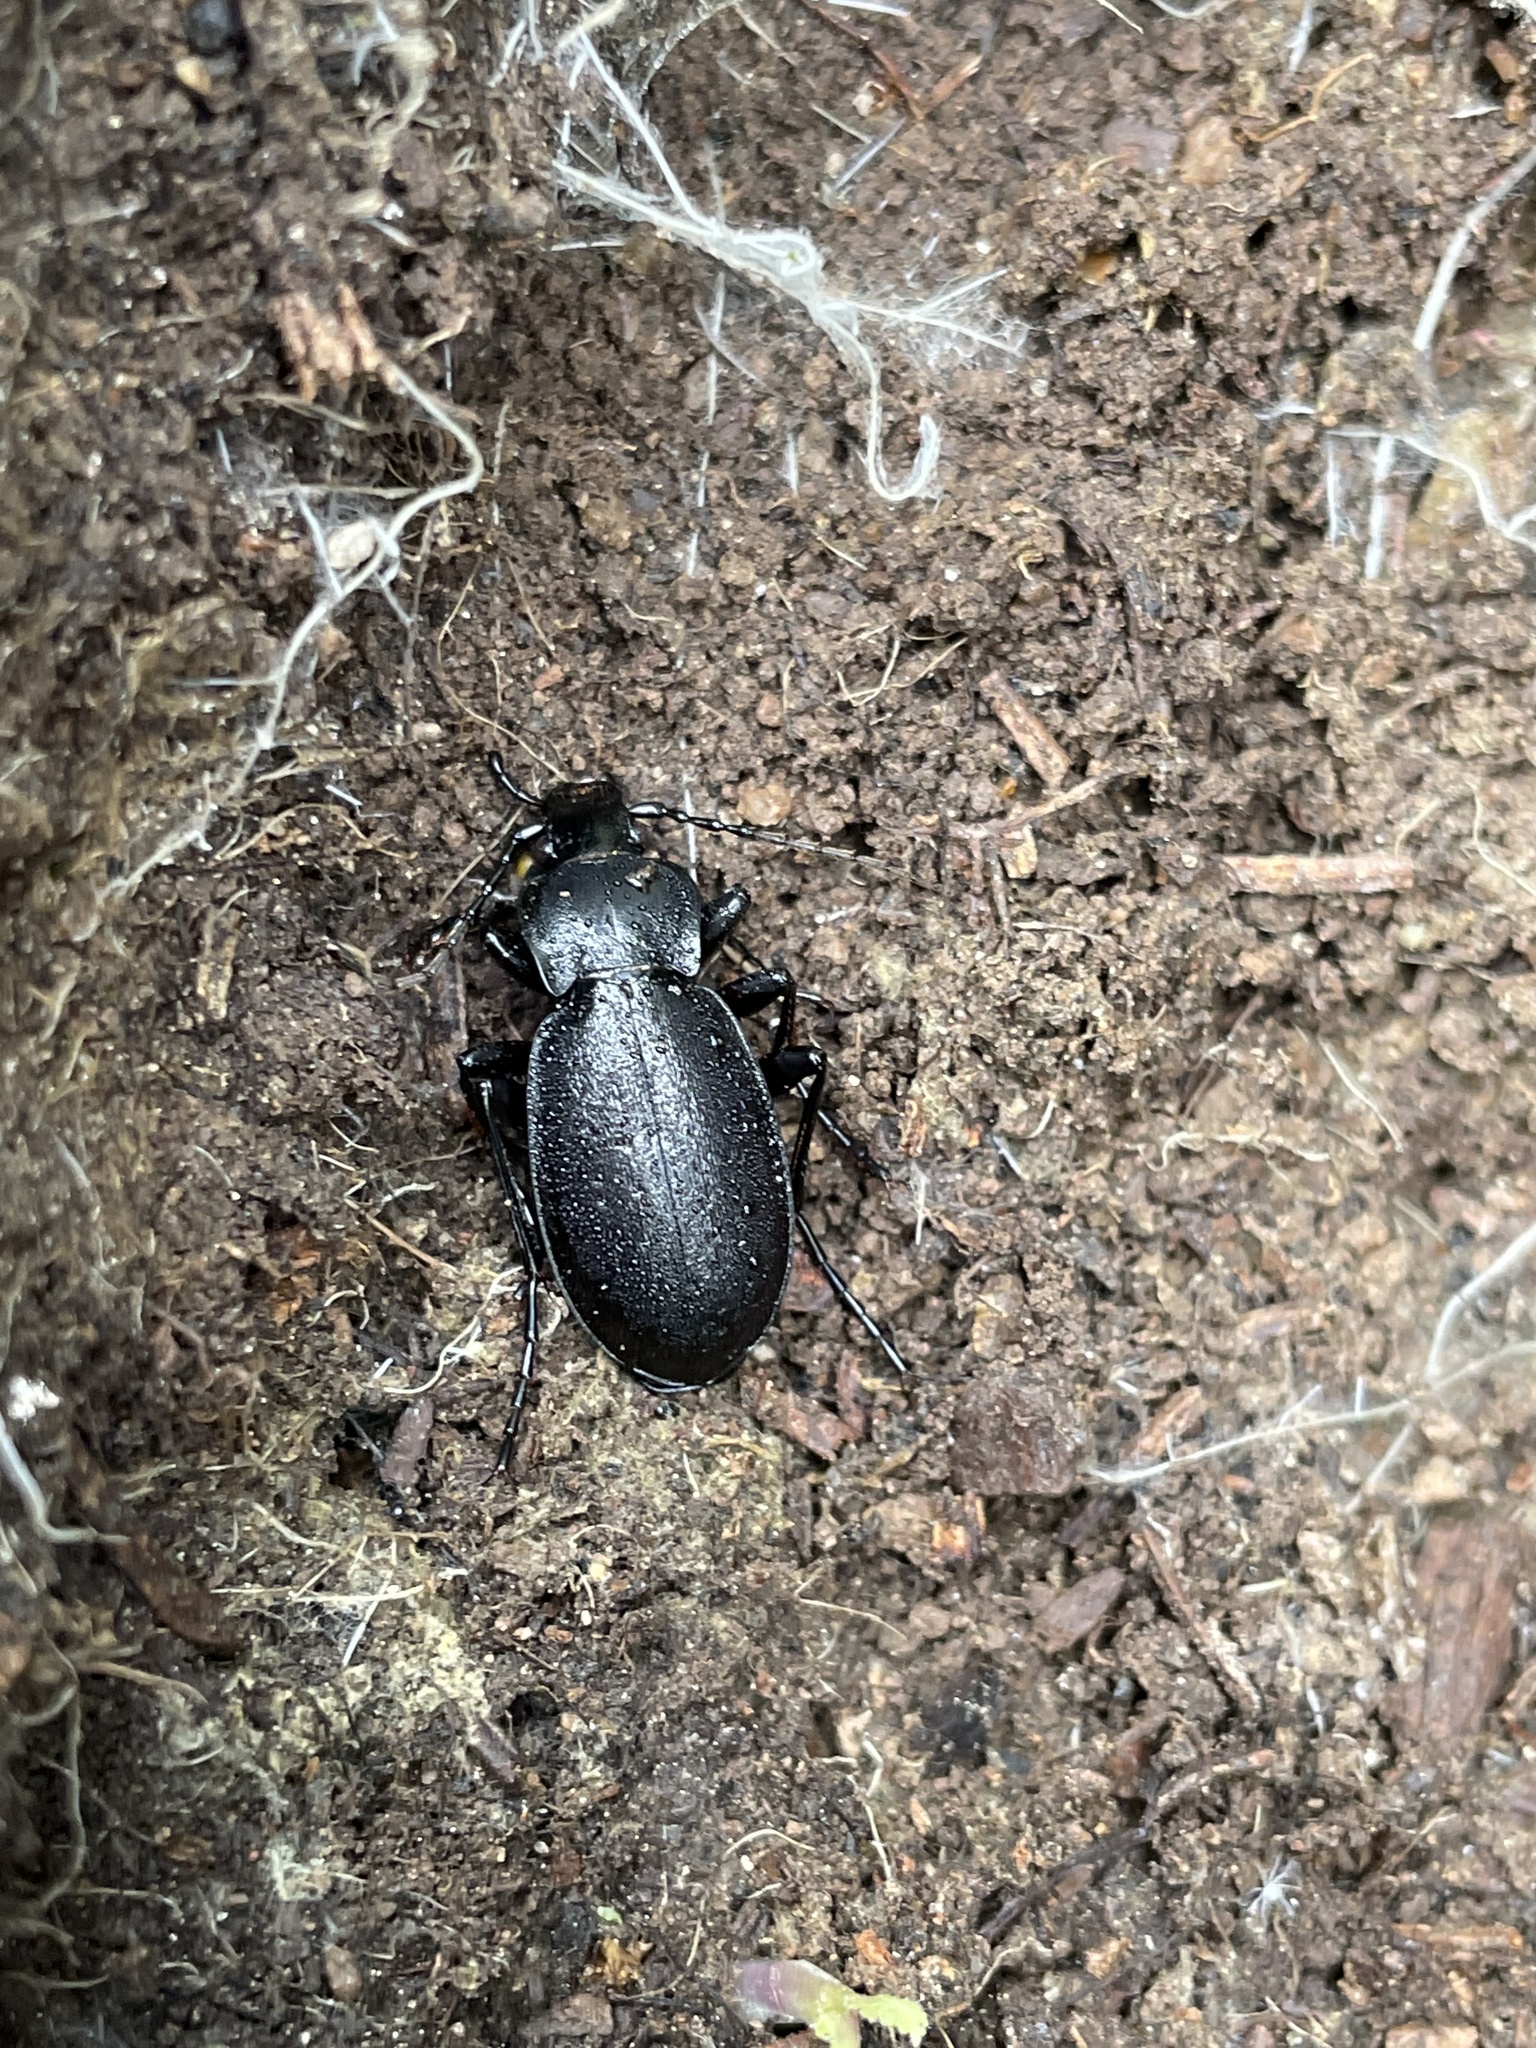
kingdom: Animalia
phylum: Arthropoda
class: Insecta
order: Coleoptera
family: Carabidae
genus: Carabus
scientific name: Carabus taedatus
